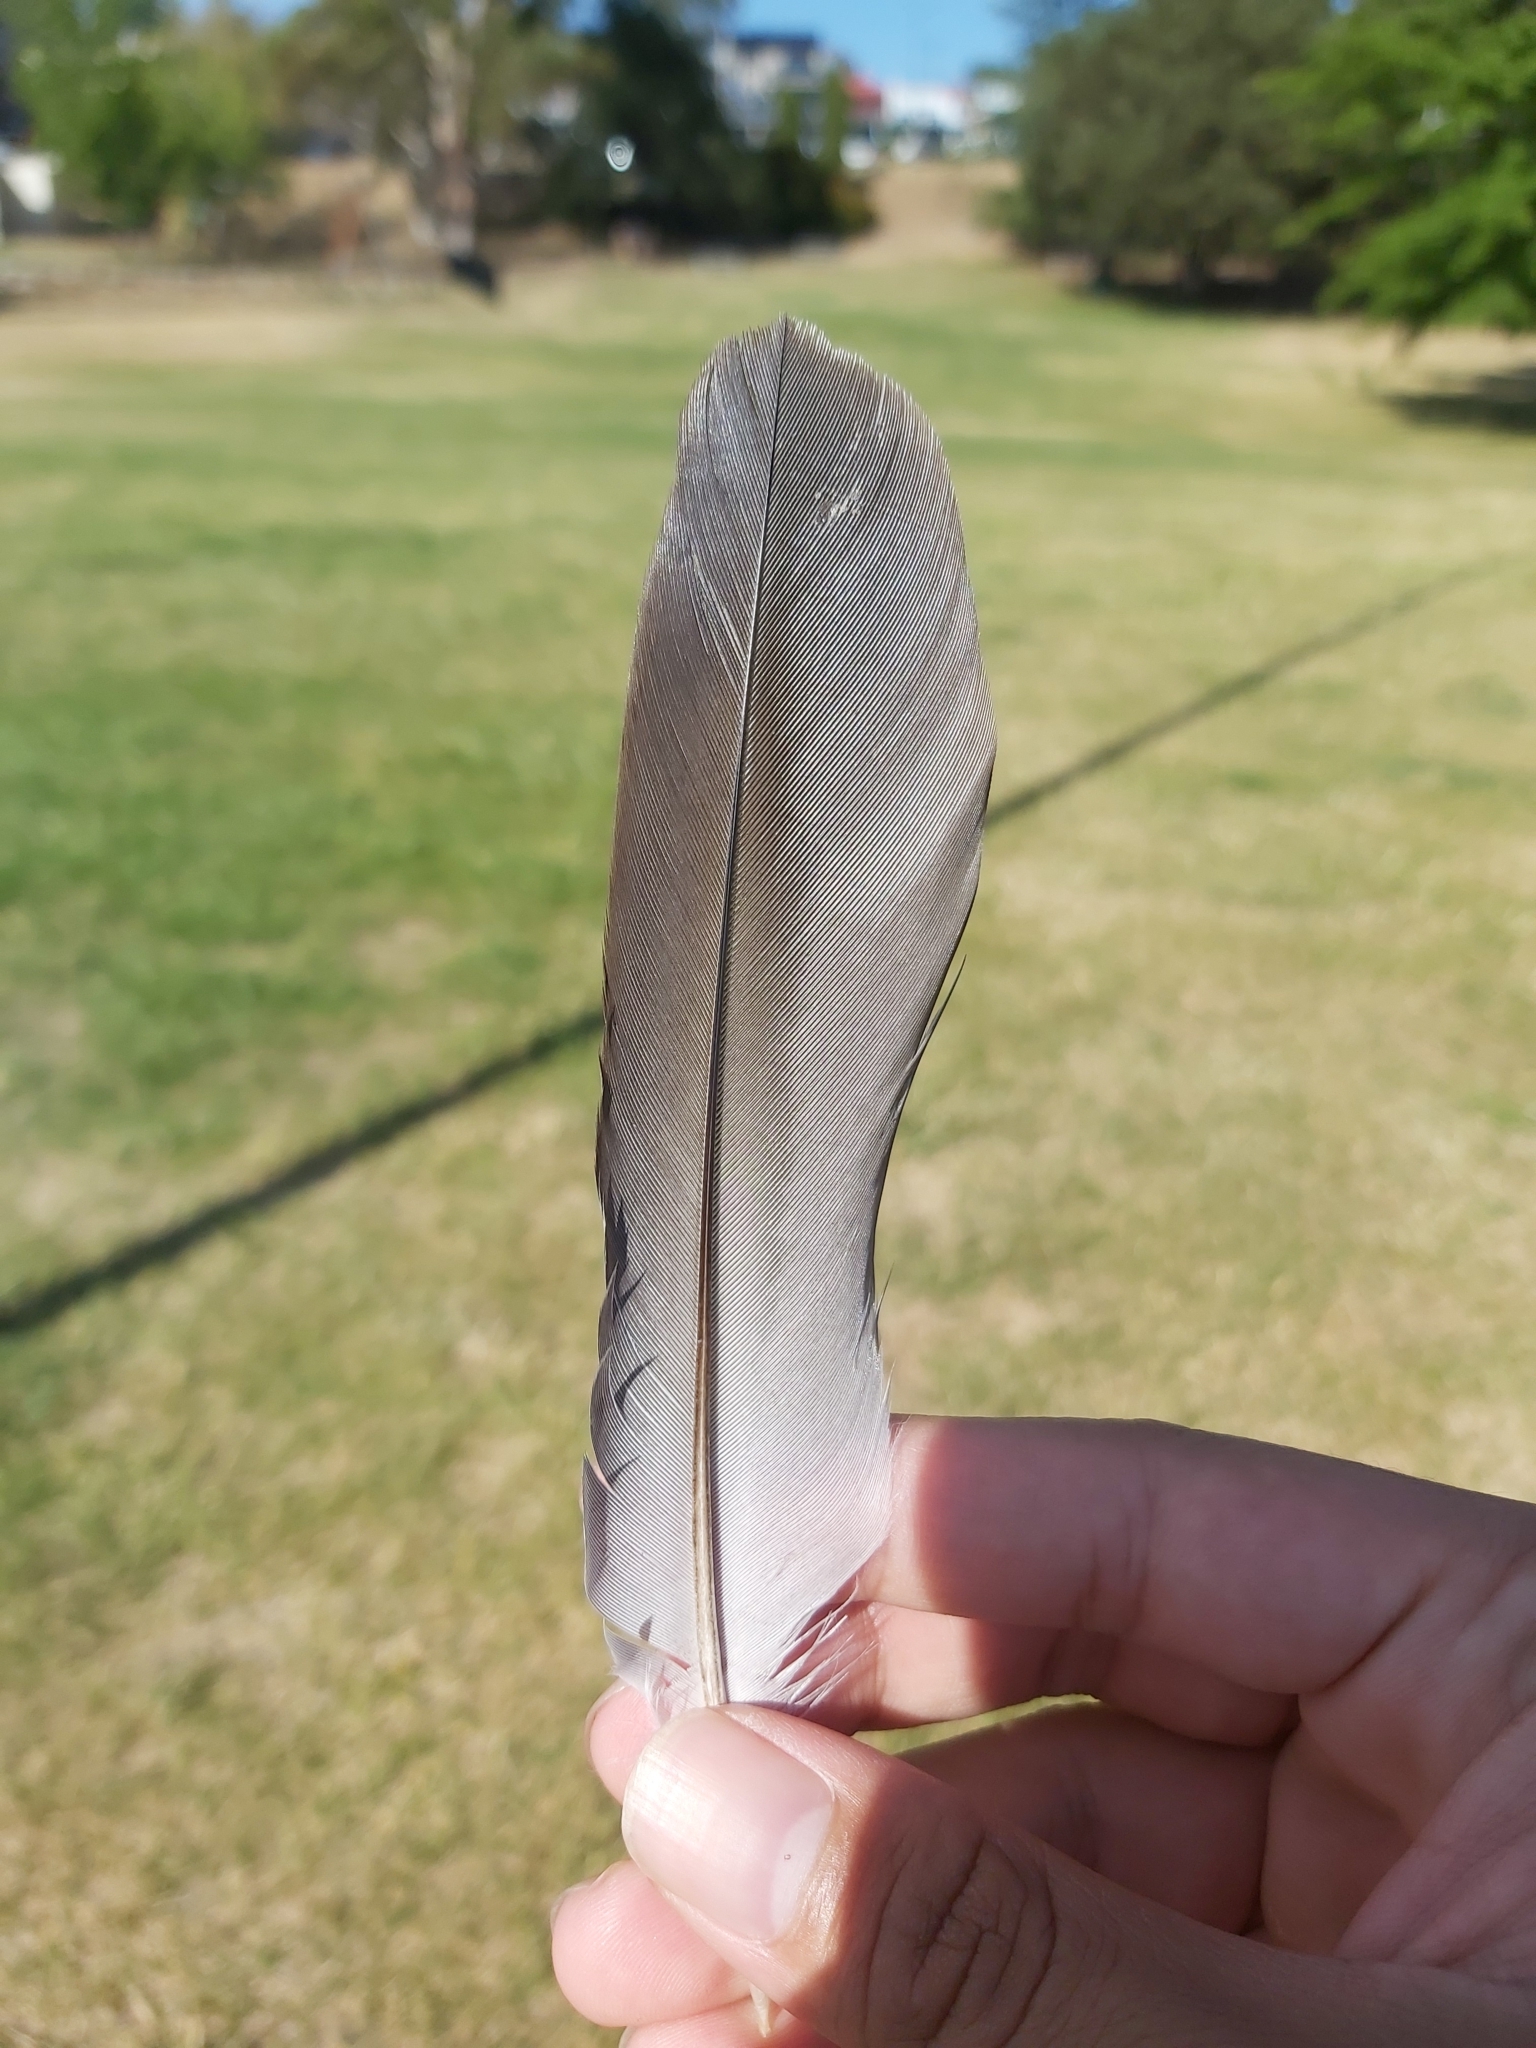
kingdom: Animalia
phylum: Chordata
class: Aves
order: Psittaciformes
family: Psittacidae
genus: Eolophus
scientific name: Eolophus roseicapilla
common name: Galah
